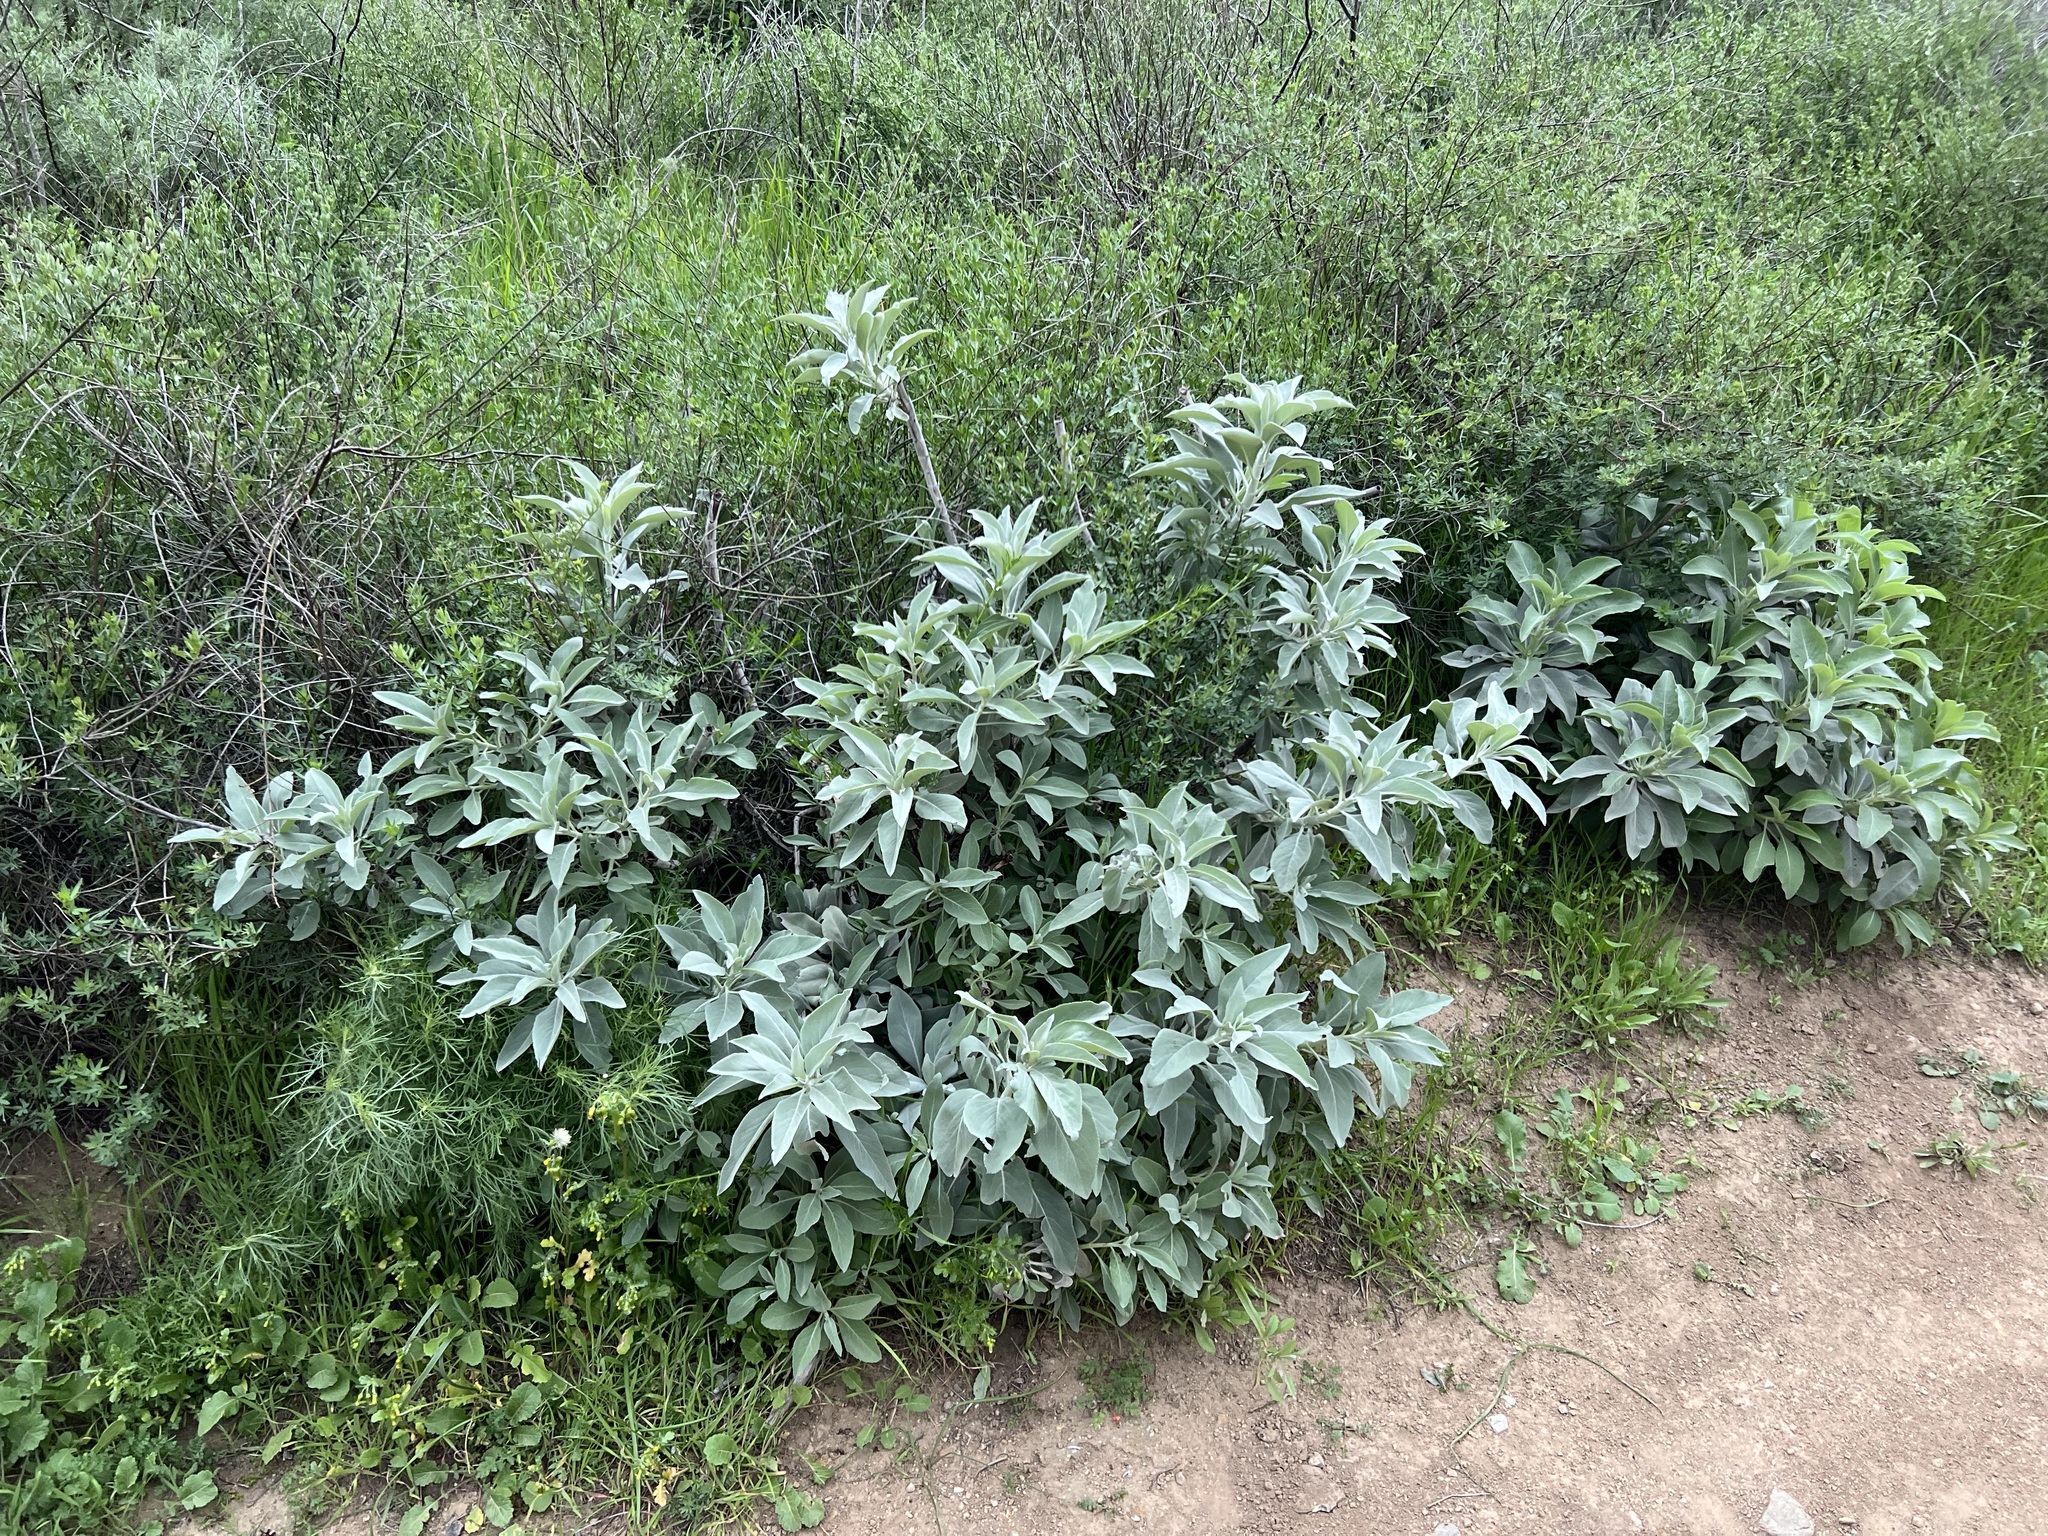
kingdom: Plantae
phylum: Tracheophyta
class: Magnoliopsida
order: Lamiales
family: Lamiaceae
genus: Salvia
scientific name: Salvia apiana
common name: White sage
